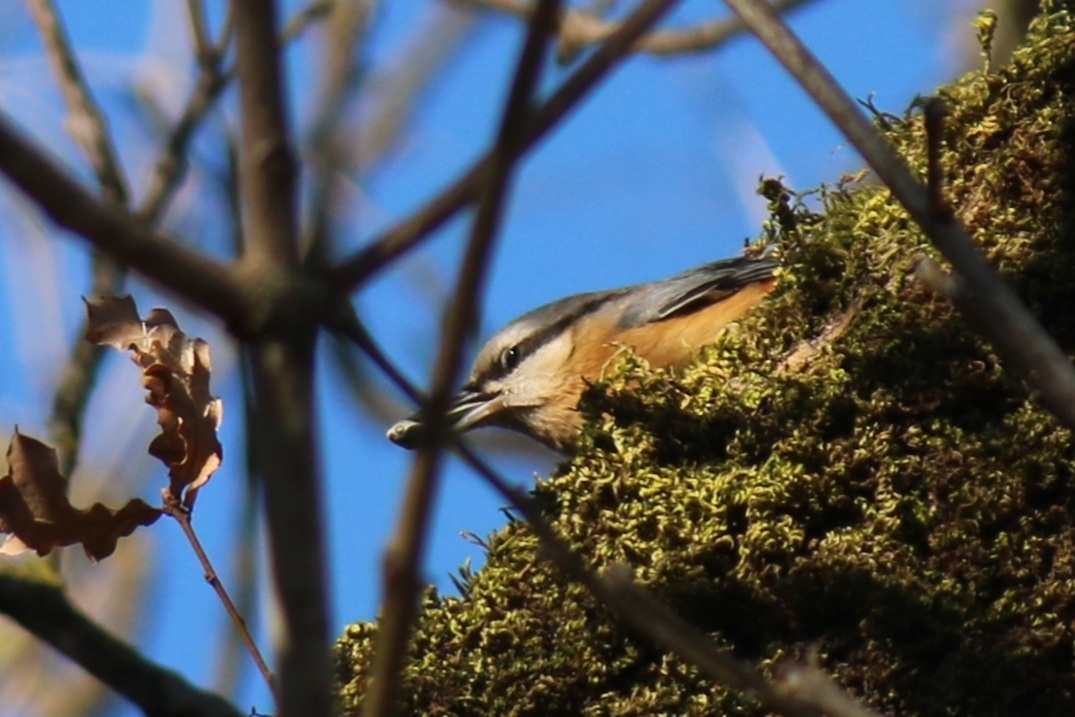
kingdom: Animalia
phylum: Chordata
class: Aves
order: Passeriformes
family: Sittidae
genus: Sitta
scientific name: Sitta europaea
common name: Eurasian nuthatch
